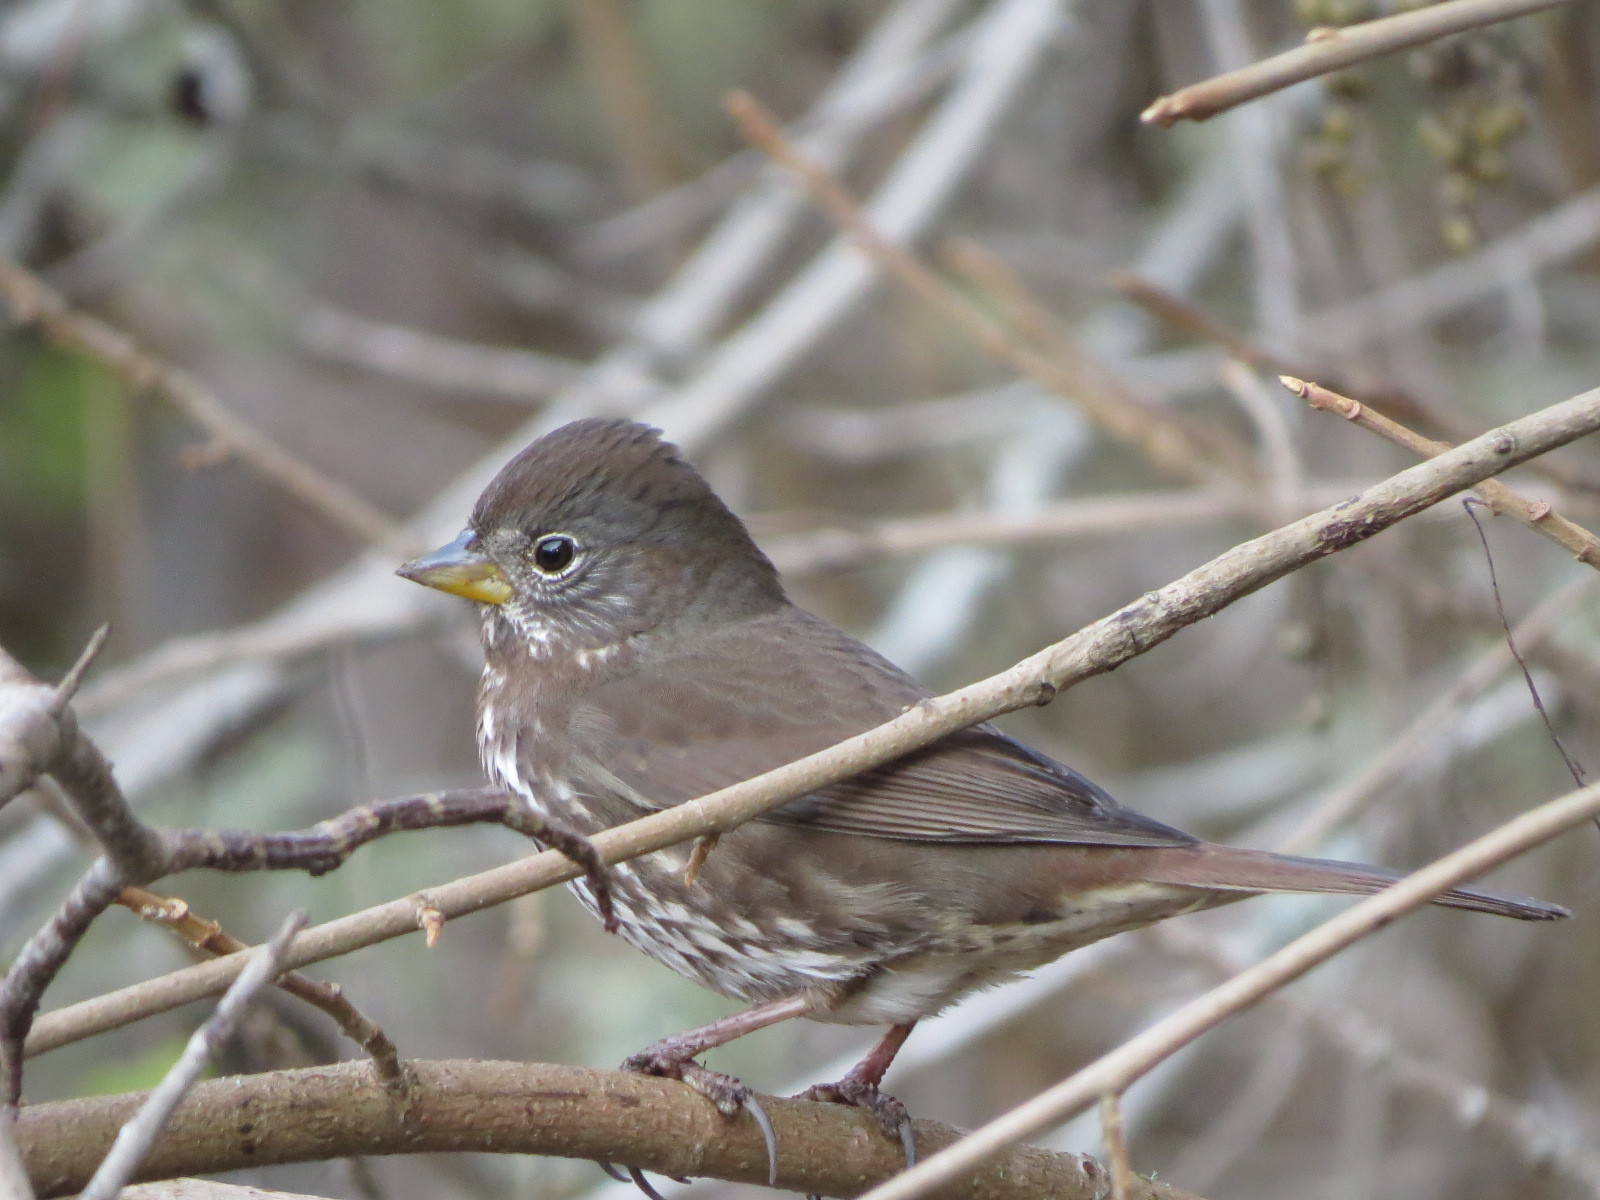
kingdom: Animalia
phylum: Chordata
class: Aves
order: Passeriformes
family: Passerellidae
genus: Passerella
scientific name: Passerella iliaca
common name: Fox sparrow
